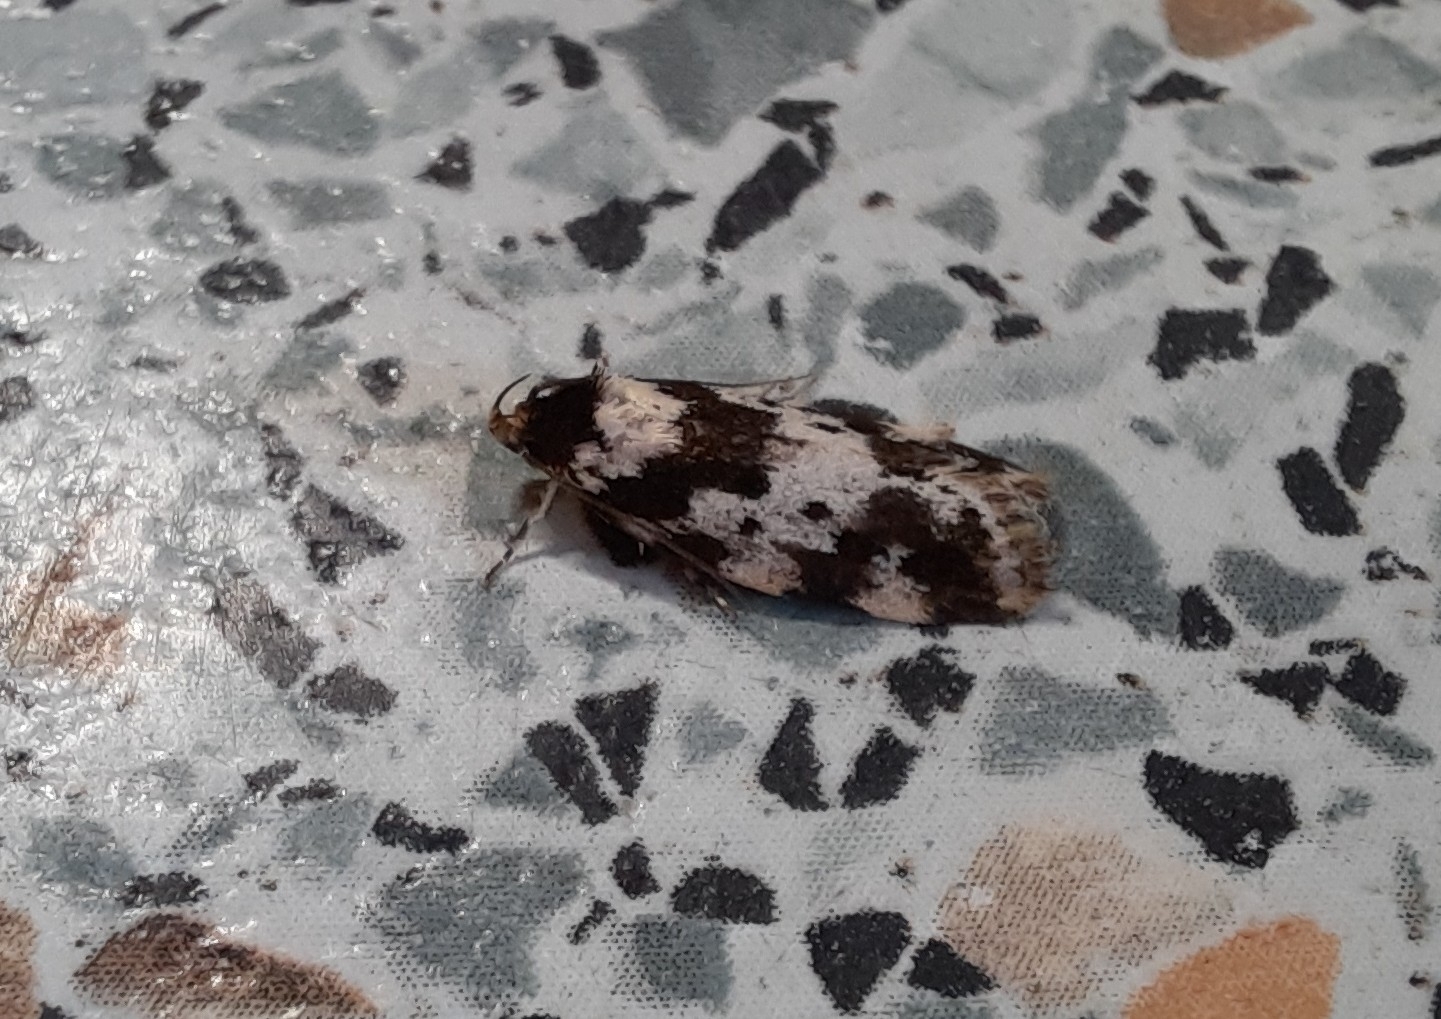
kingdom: Animalia
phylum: Arthropoda
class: Insecta
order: Lepidoptera
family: Oecophoridae
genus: Barea
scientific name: Barea confusella
